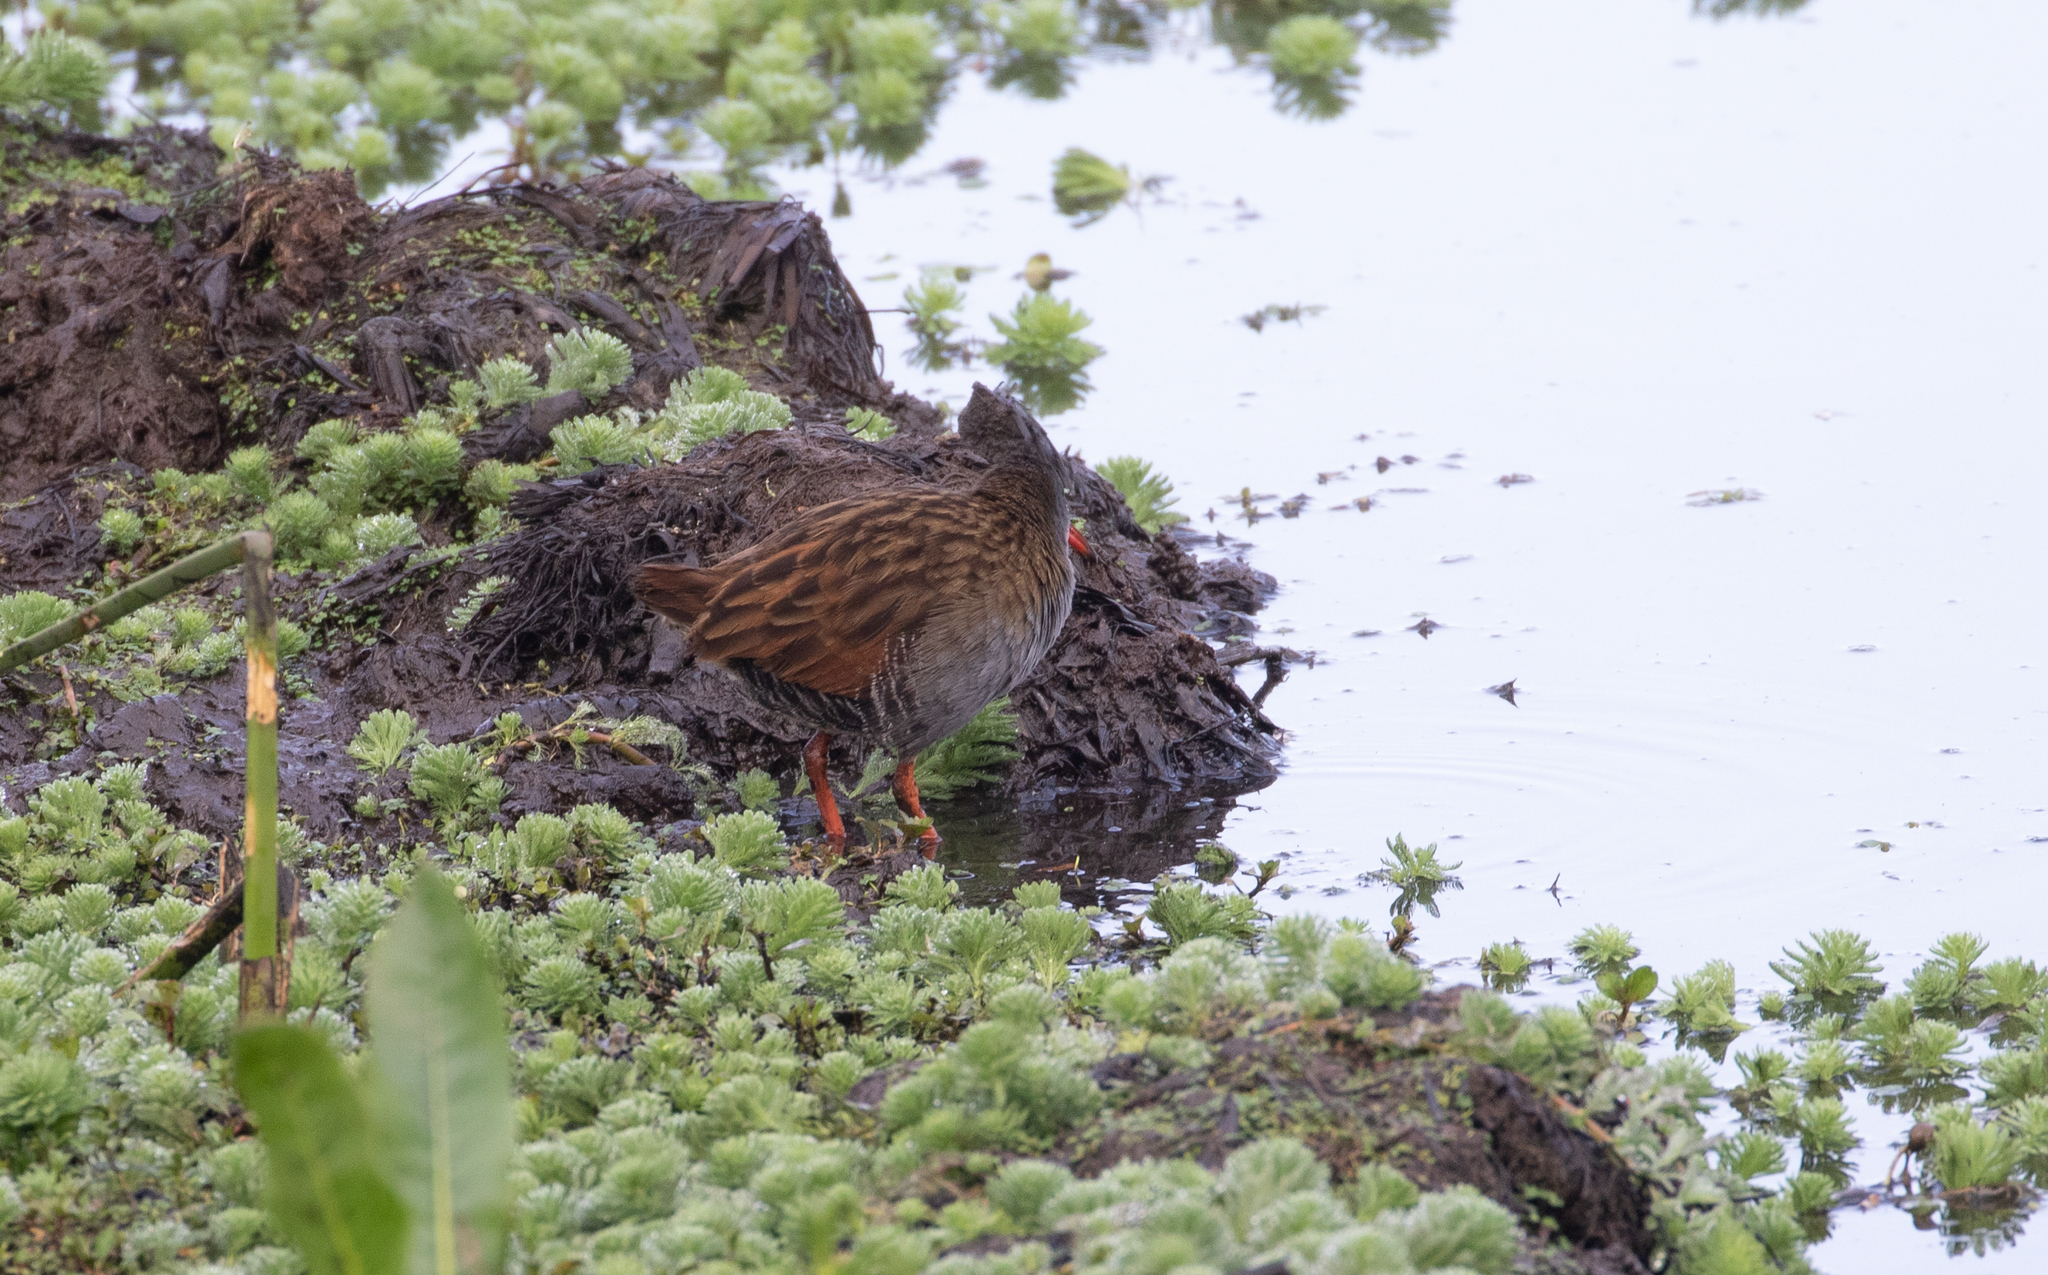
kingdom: Animalia
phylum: Chordata
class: Aves
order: Gruiformes
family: Rallidae
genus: Rallus
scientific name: Rallus semiplumbeus
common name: Bogota rail
